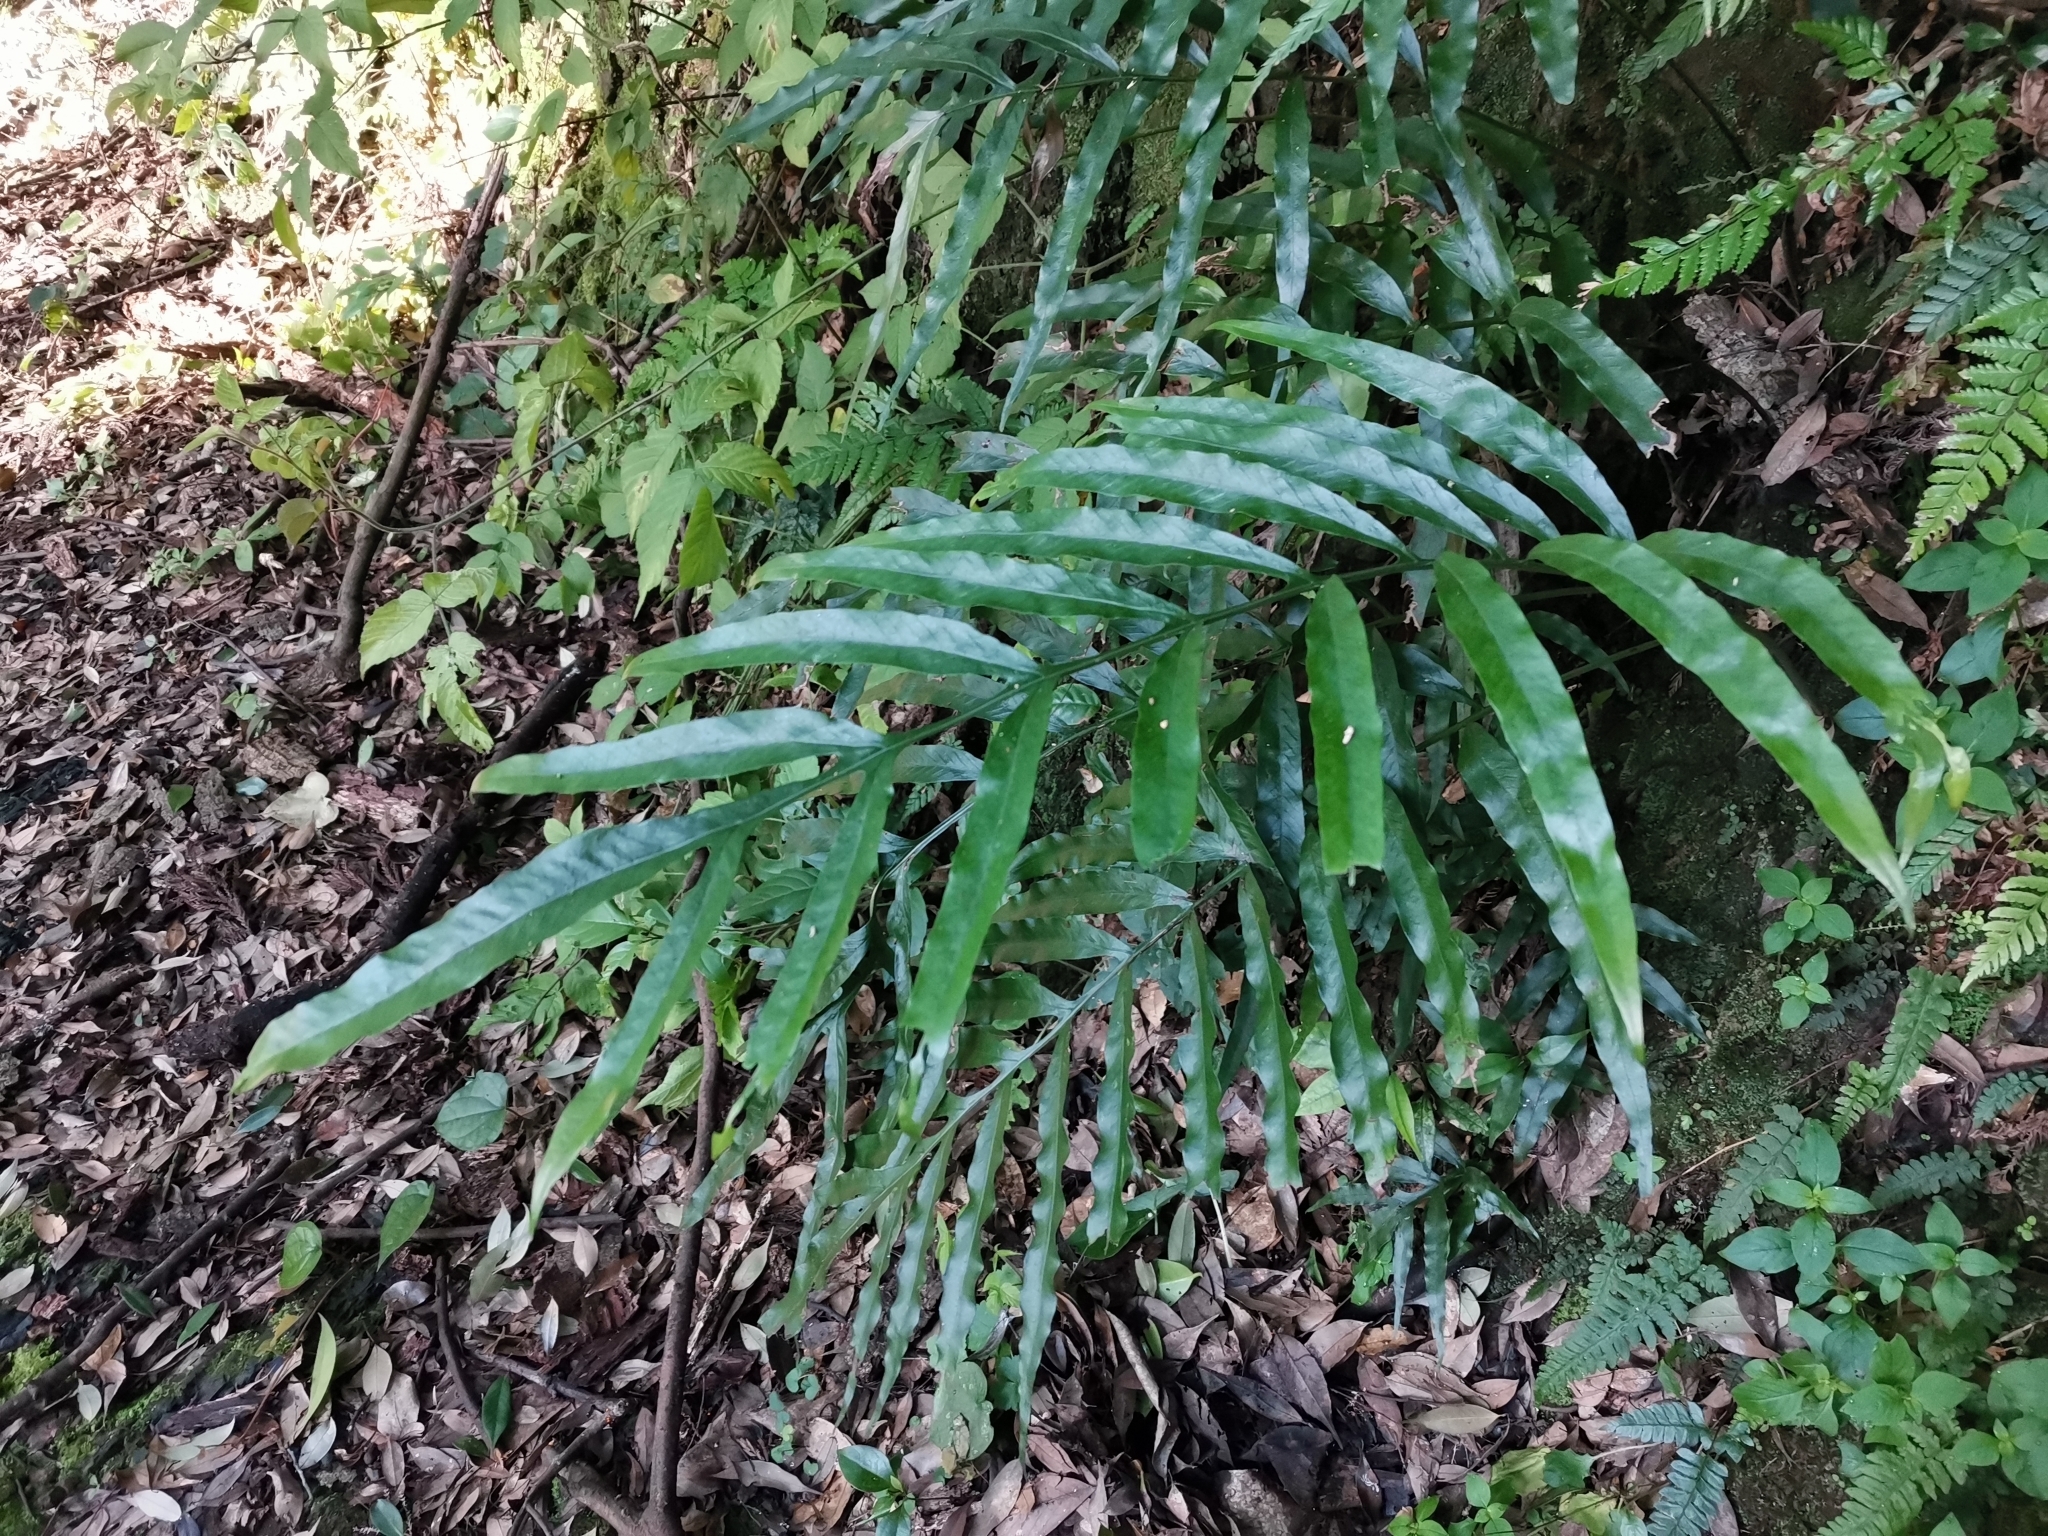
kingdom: Plantae
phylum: Tracheophyta
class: Polypodiopsida
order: Polypodiales
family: Polypodiaceae
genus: Leptochilus
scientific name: Leptochilus ellipticus
